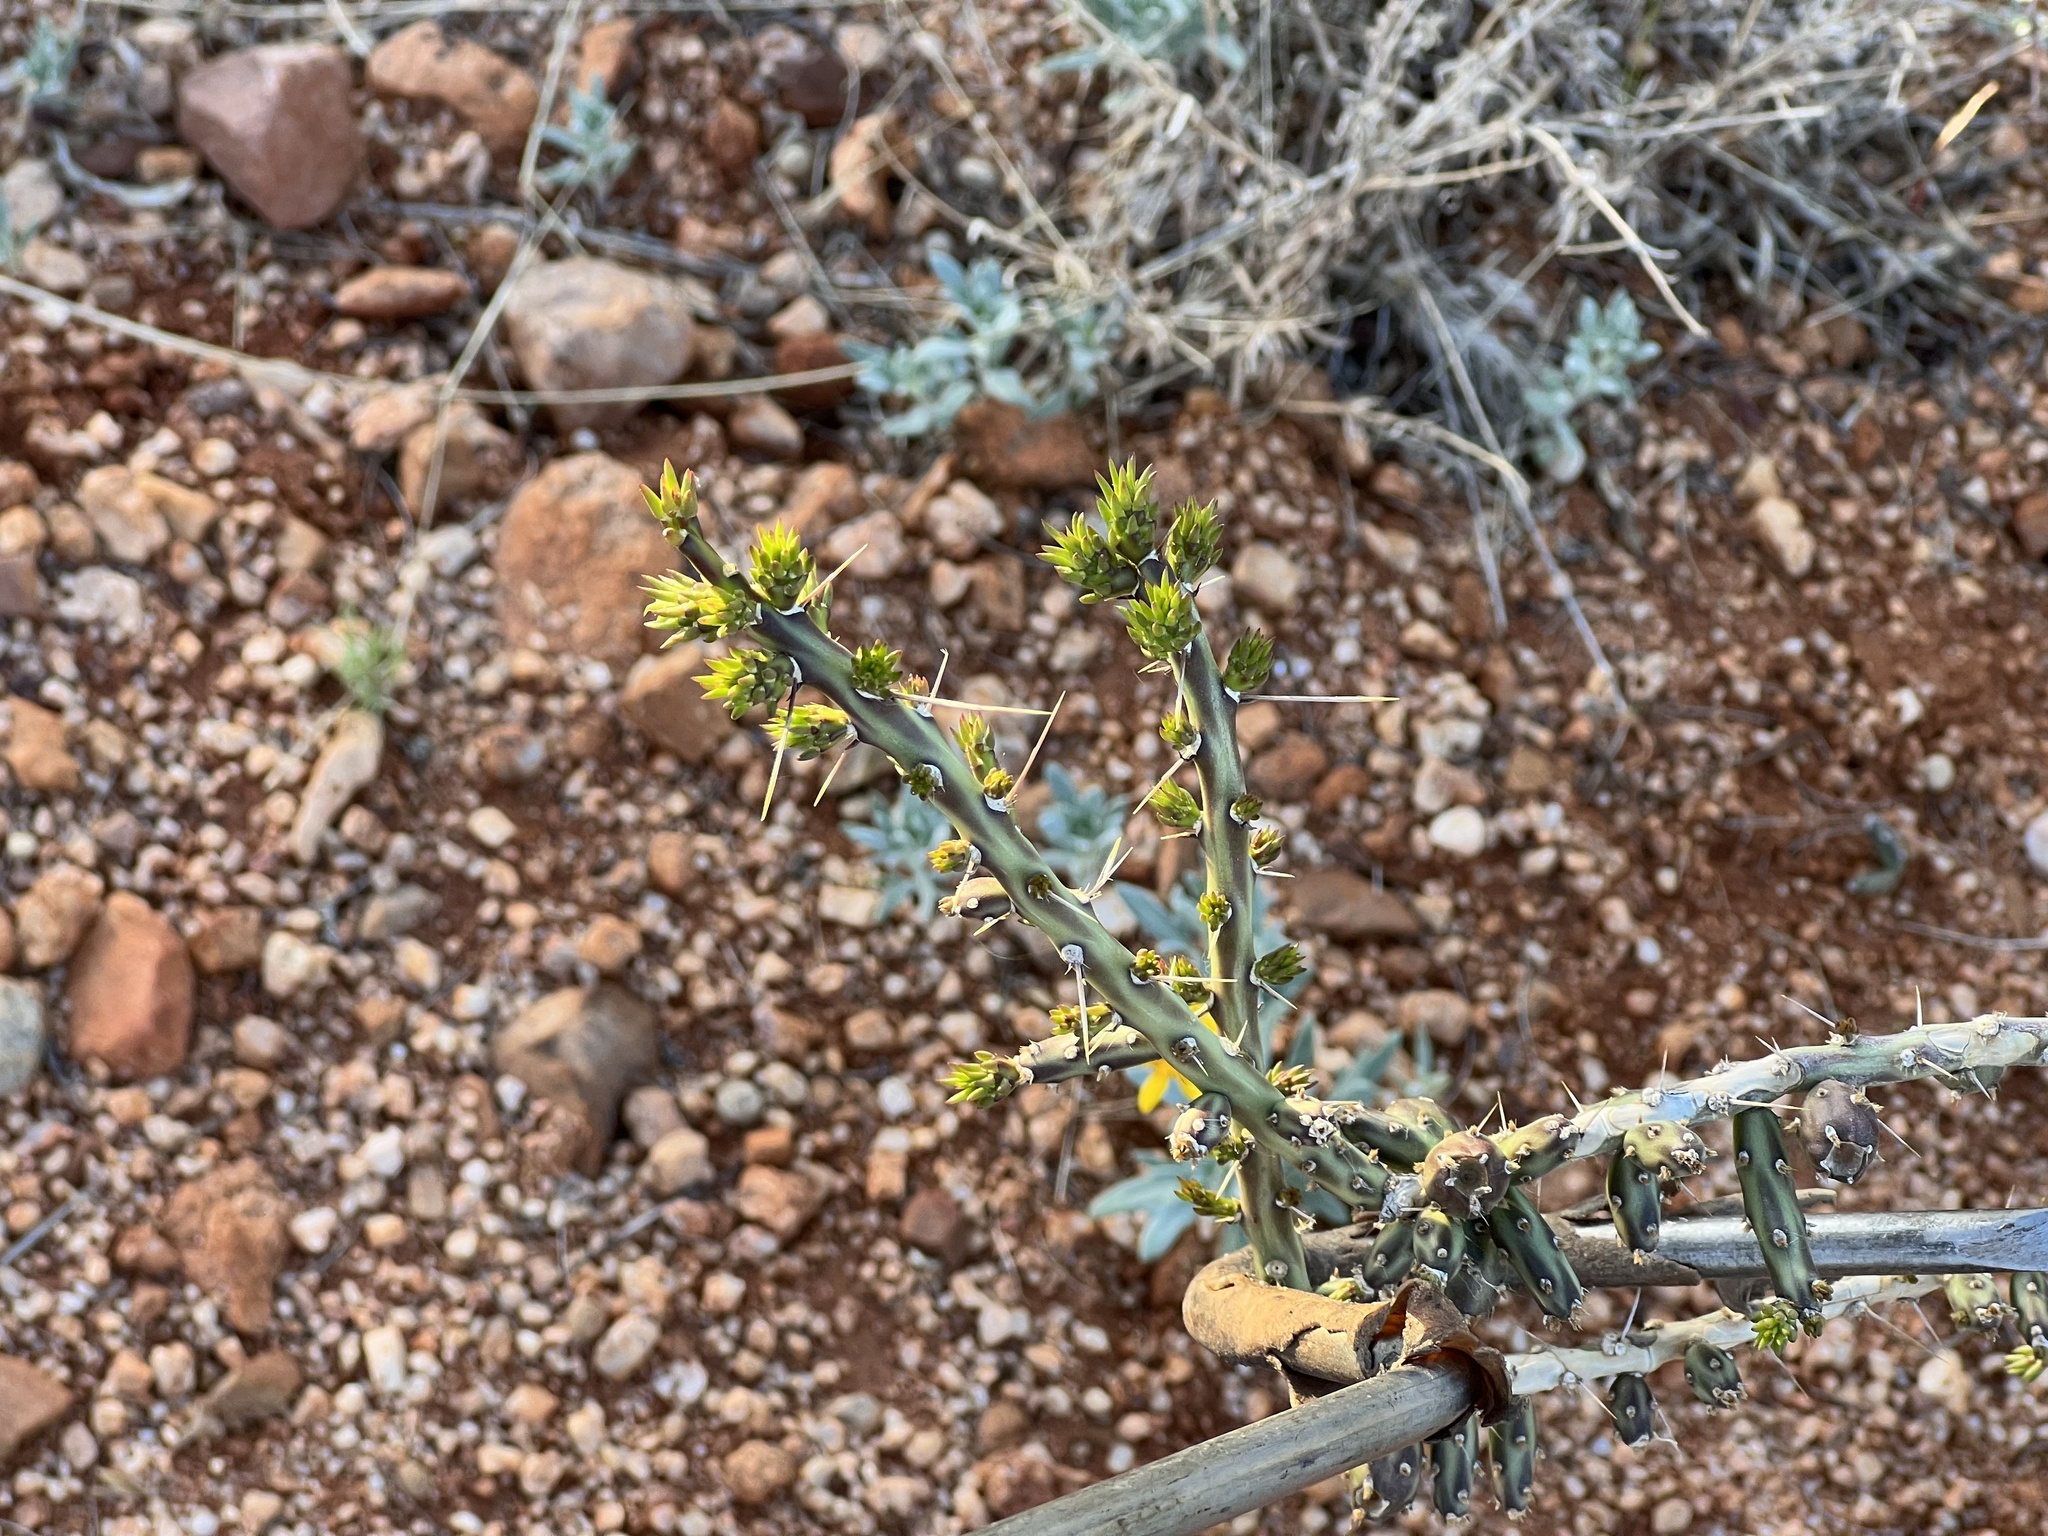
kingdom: Plantae
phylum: Tracheophyta
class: Magnoliopsida
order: Caryophyllales
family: Cactaceae
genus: Cylindropuntia
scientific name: Cylindropuntia leptocaulis
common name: Christmas cactus
